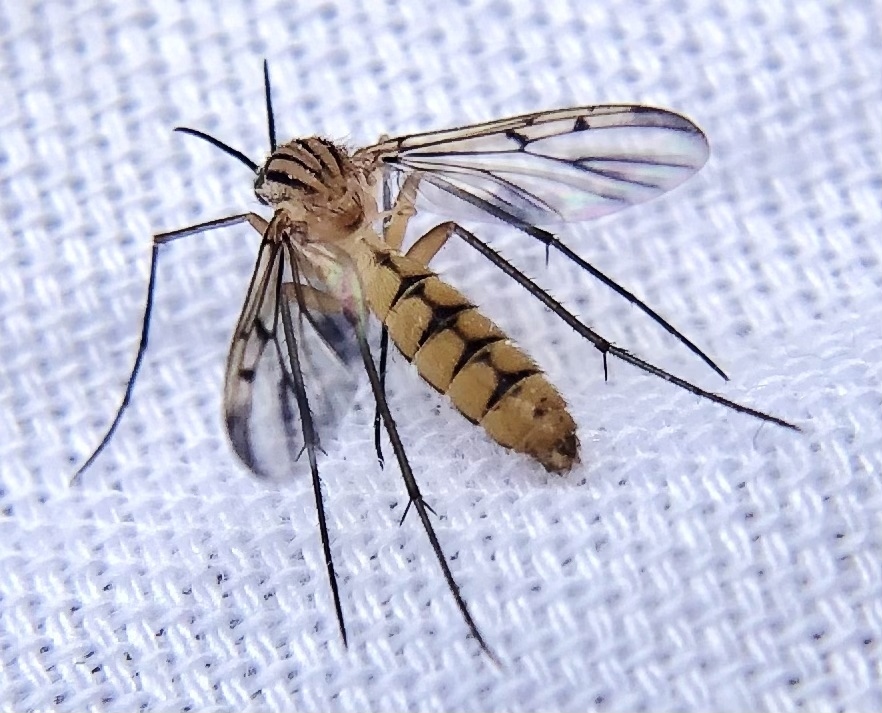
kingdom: Animalia
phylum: Arthropoda
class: Insecta
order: Diptera
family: Mycetophilidae
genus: Neoempheria
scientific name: Neoempheria balioptera
